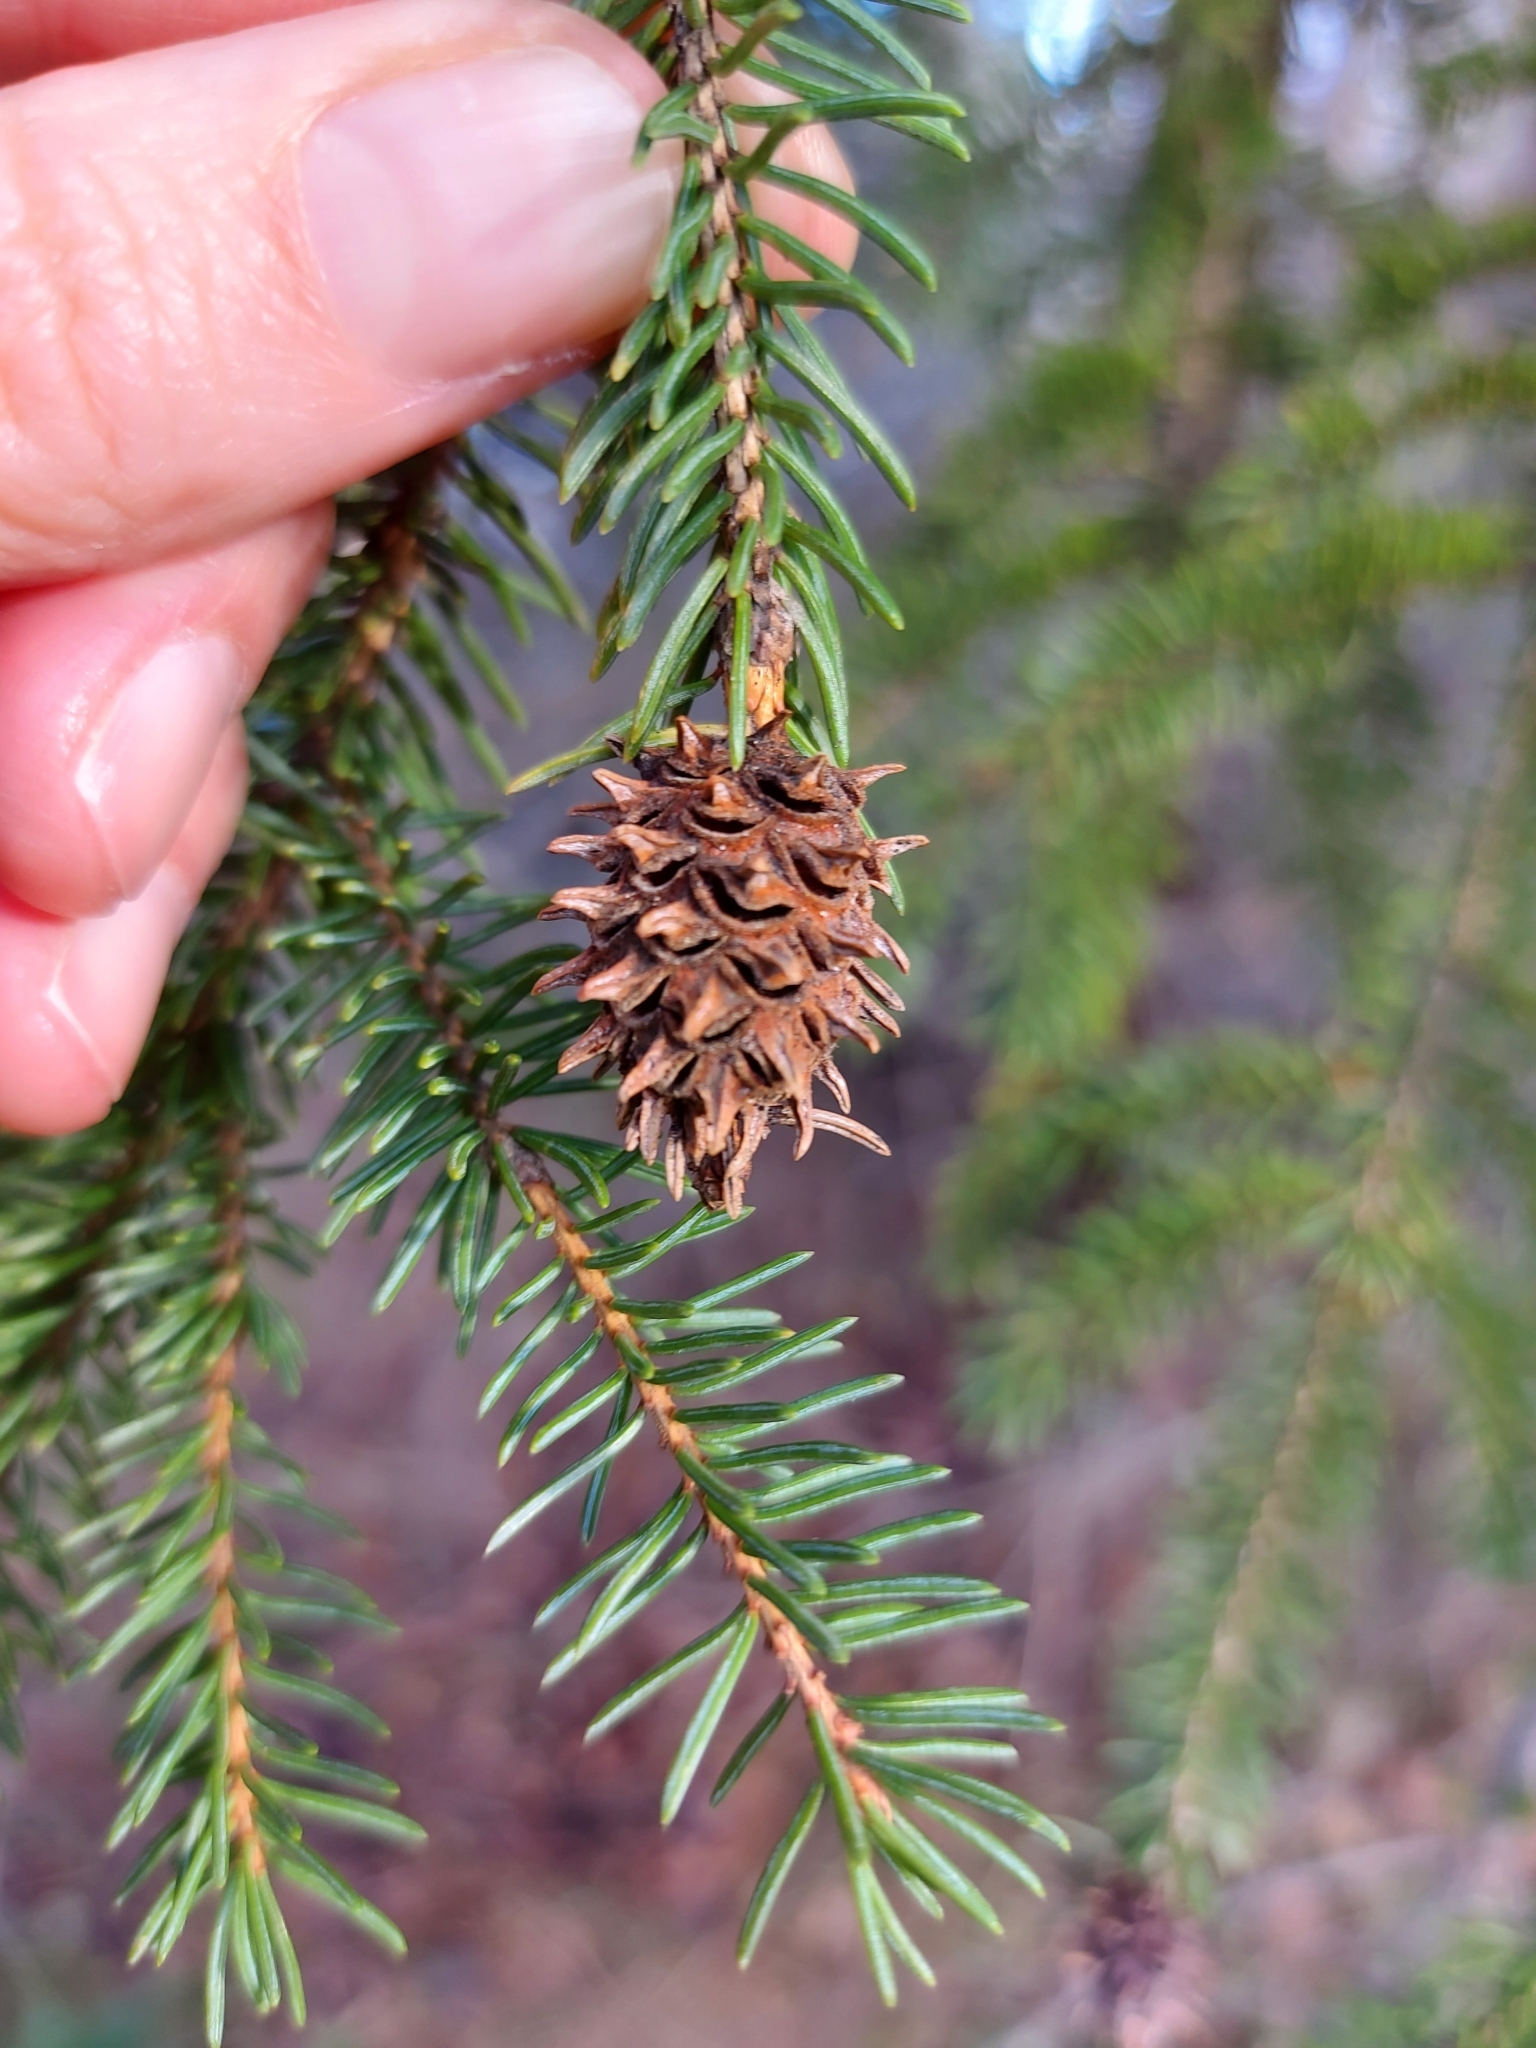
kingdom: Animalia
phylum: Arthropoda
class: Insecta
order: Hemiptera
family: Adelgidae
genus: Adelges
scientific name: Adelges abietis
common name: Eastern spruce gall adelgid
